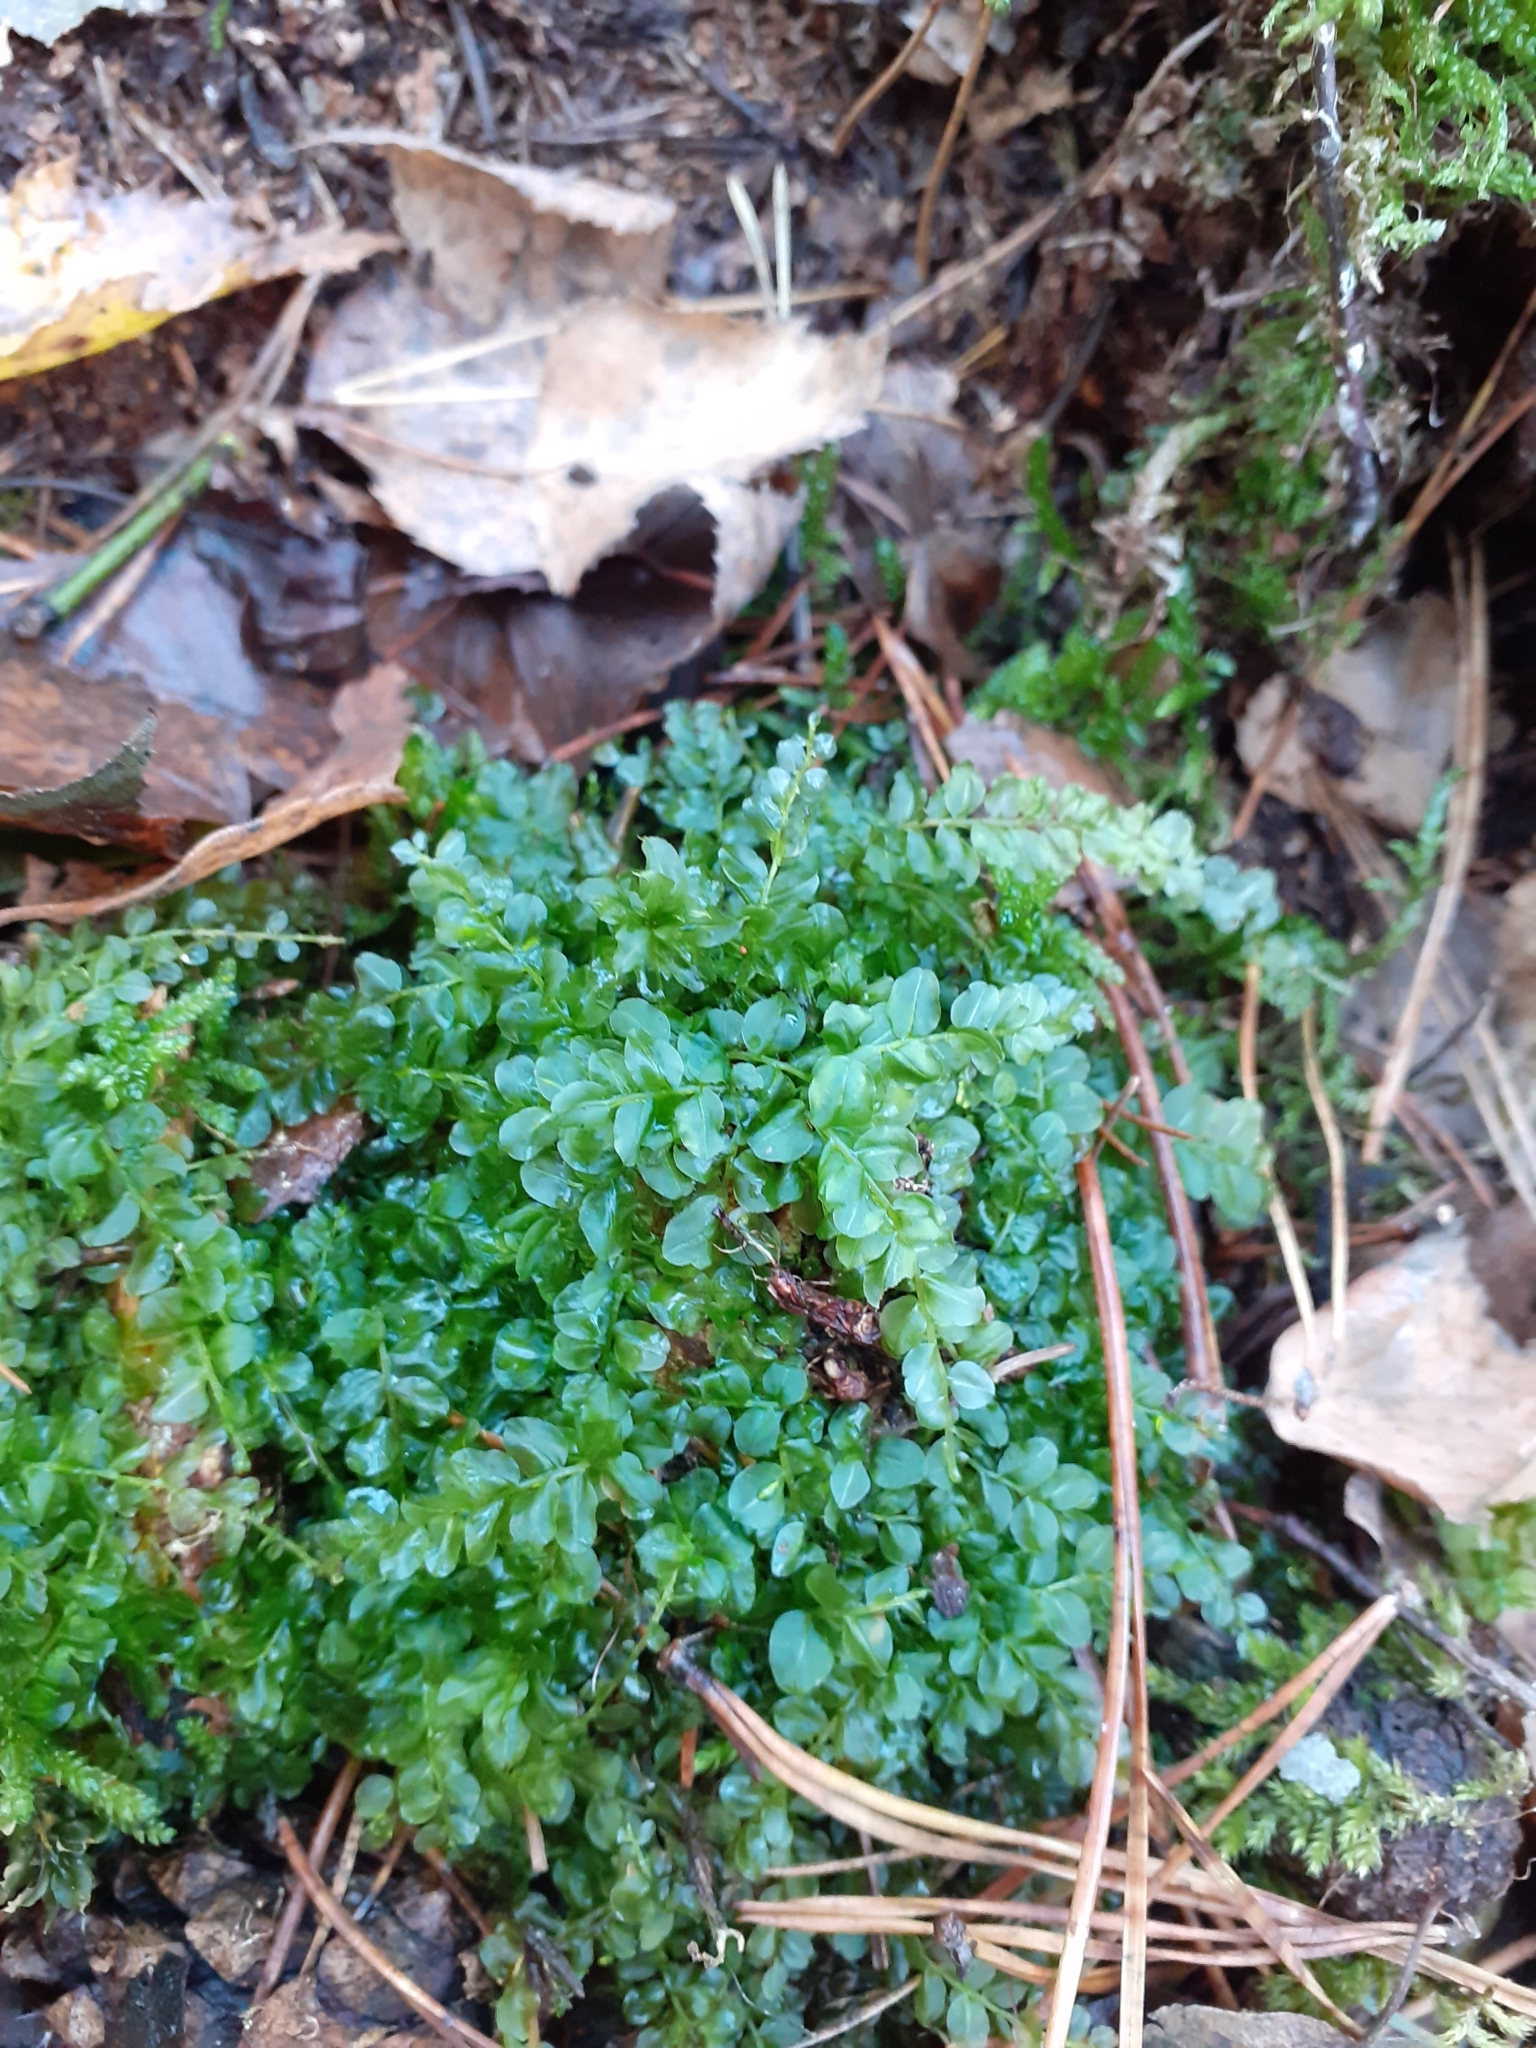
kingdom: Plantae
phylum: Bryophyta
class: Bryopsida
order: Bryales
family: Mniaceae
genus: Plagiomnium
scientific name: Plagiomnium affine
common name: Many-fruited thyme-moss
